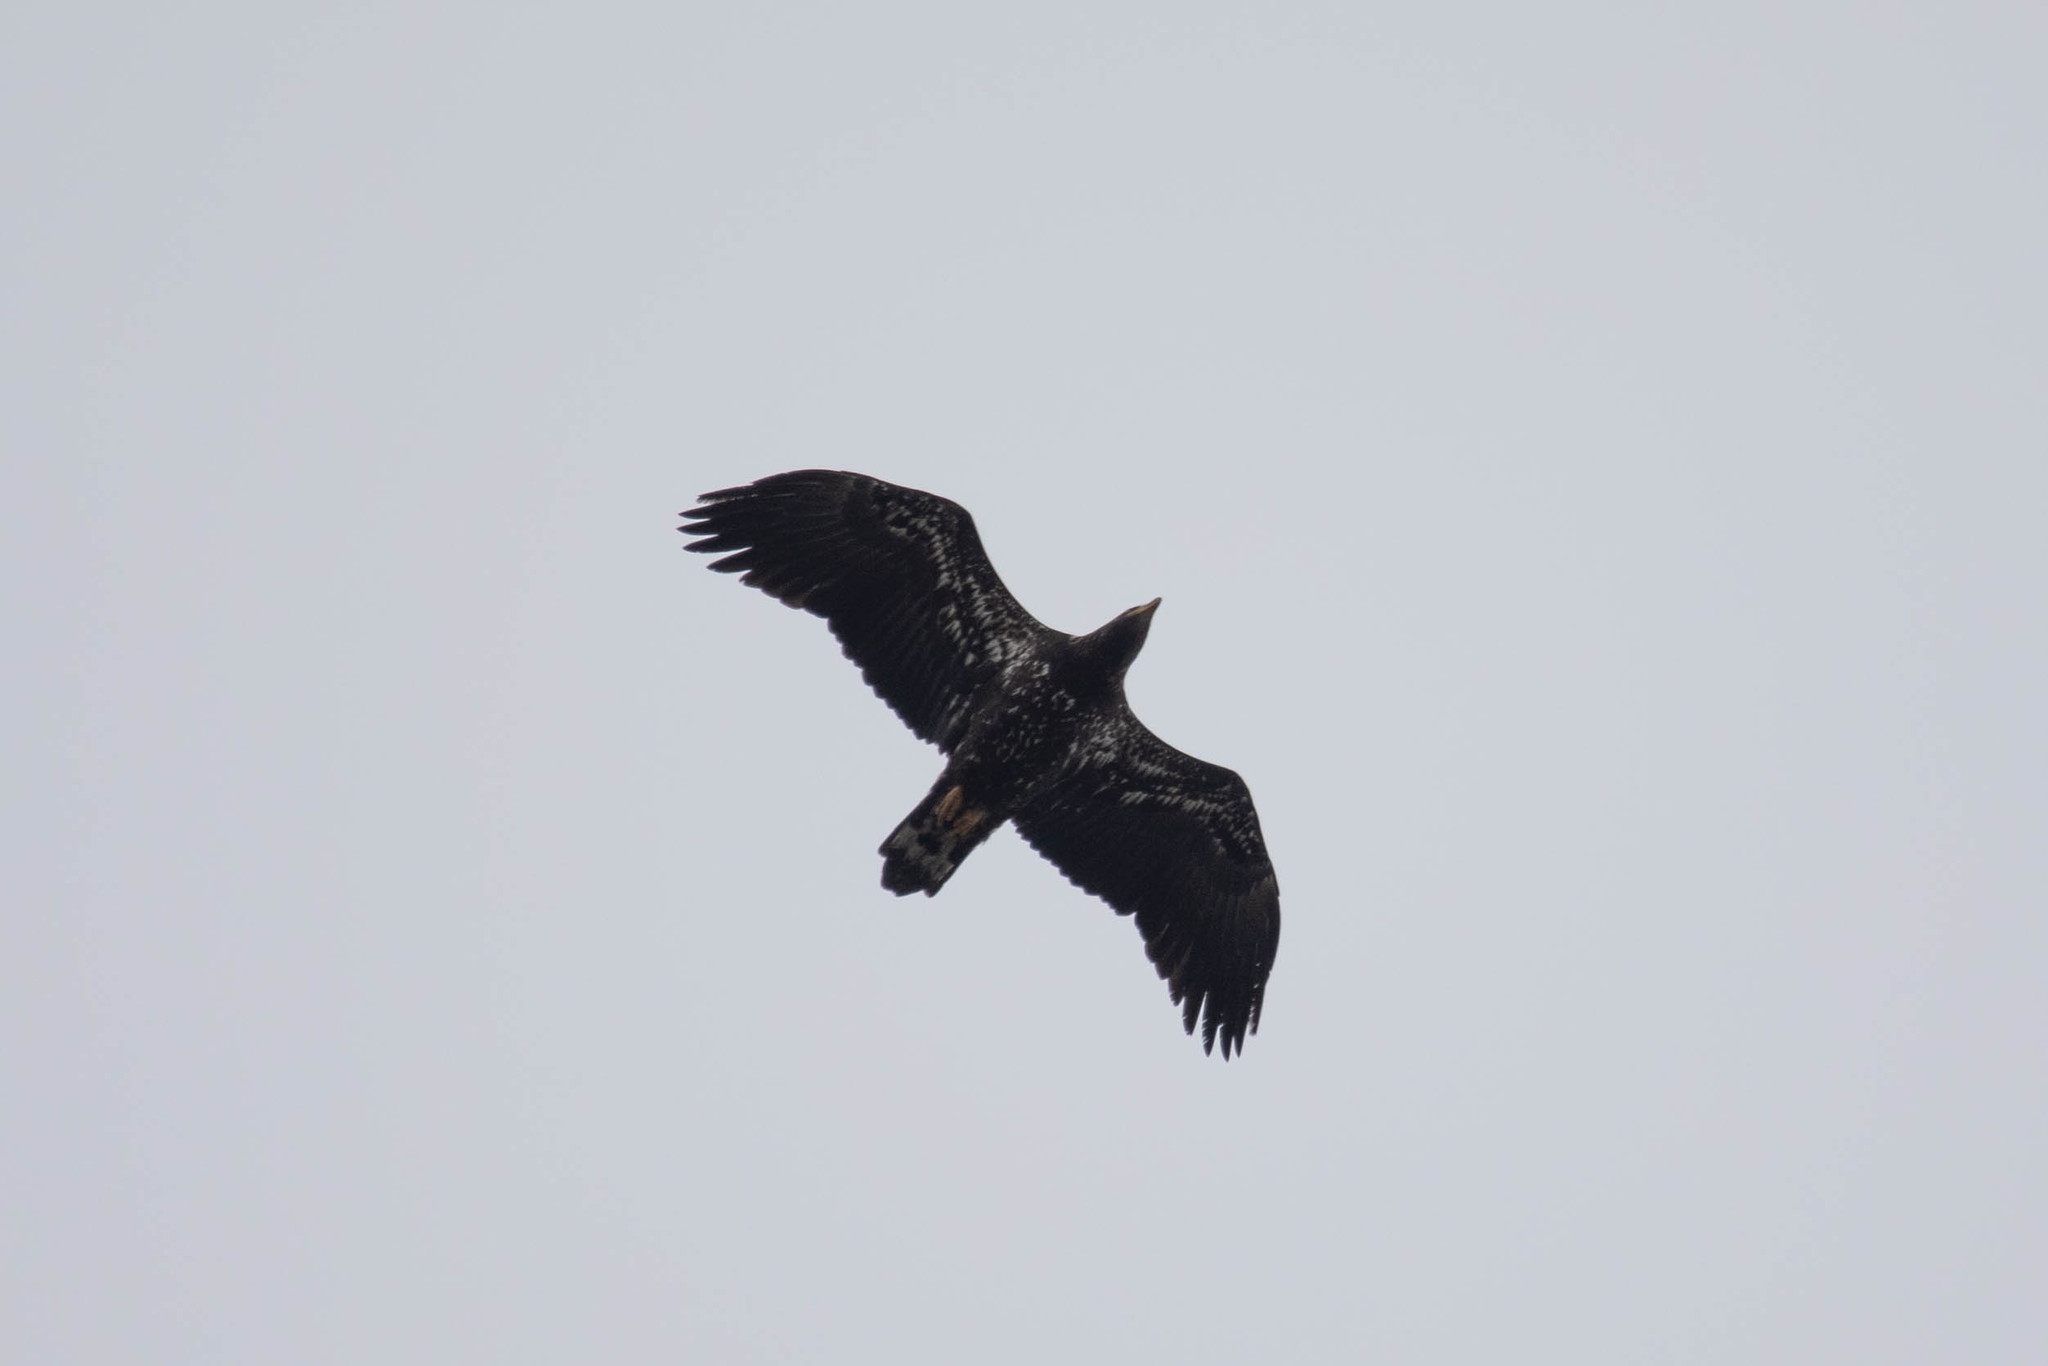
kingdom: Animalia
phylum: Chordata
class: Aves
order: Accipitriformes
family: Accipitridae
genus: Haliaeetus
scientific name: Haliaeetus leucocephalus
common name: Bald eagle
